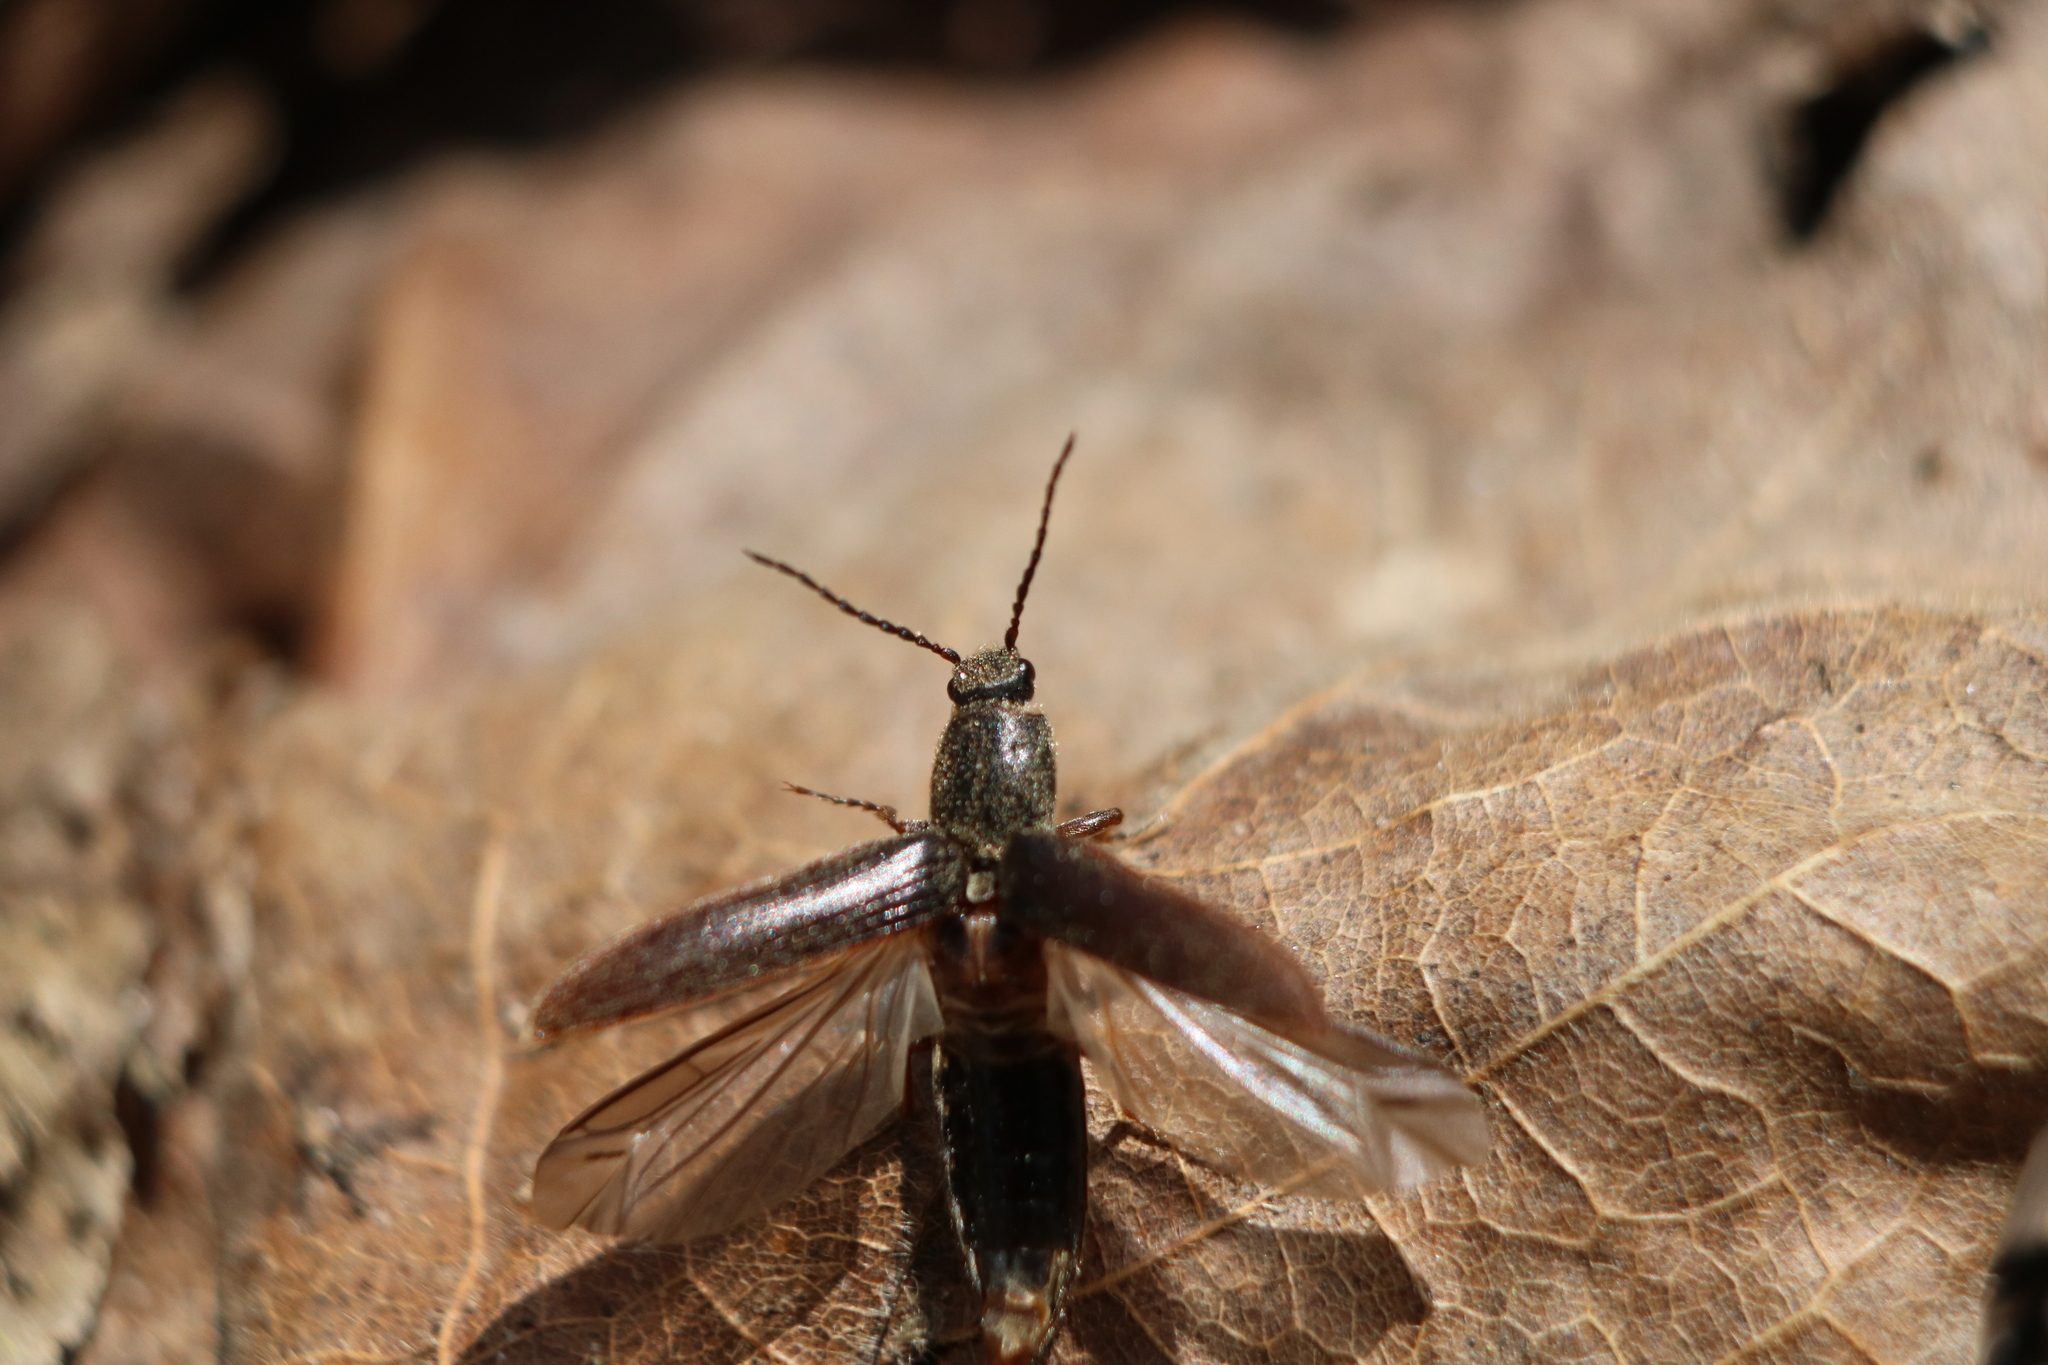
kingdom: Animalia
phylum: Arthropoda
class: Insecta
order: Coleoptera
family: Elateridae
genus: Sylvanelater
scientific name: Sylvanelater cylindriformis
